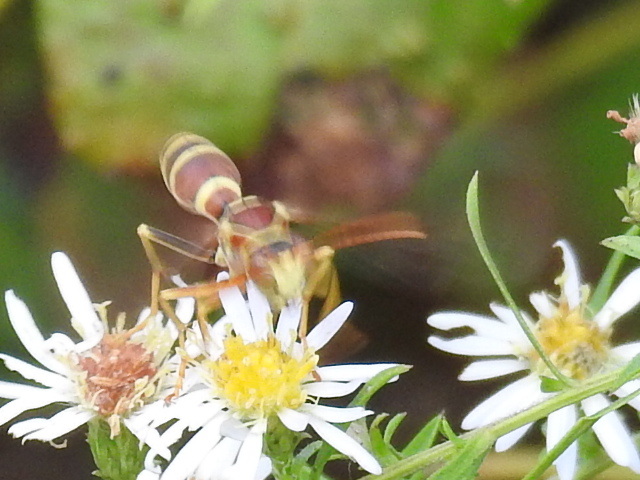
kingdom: Animalia
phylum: Arthropoda
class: Insecta
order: Hymenoptera
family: Eumenidae
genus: Polistes
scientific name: Polistes dorsalis
